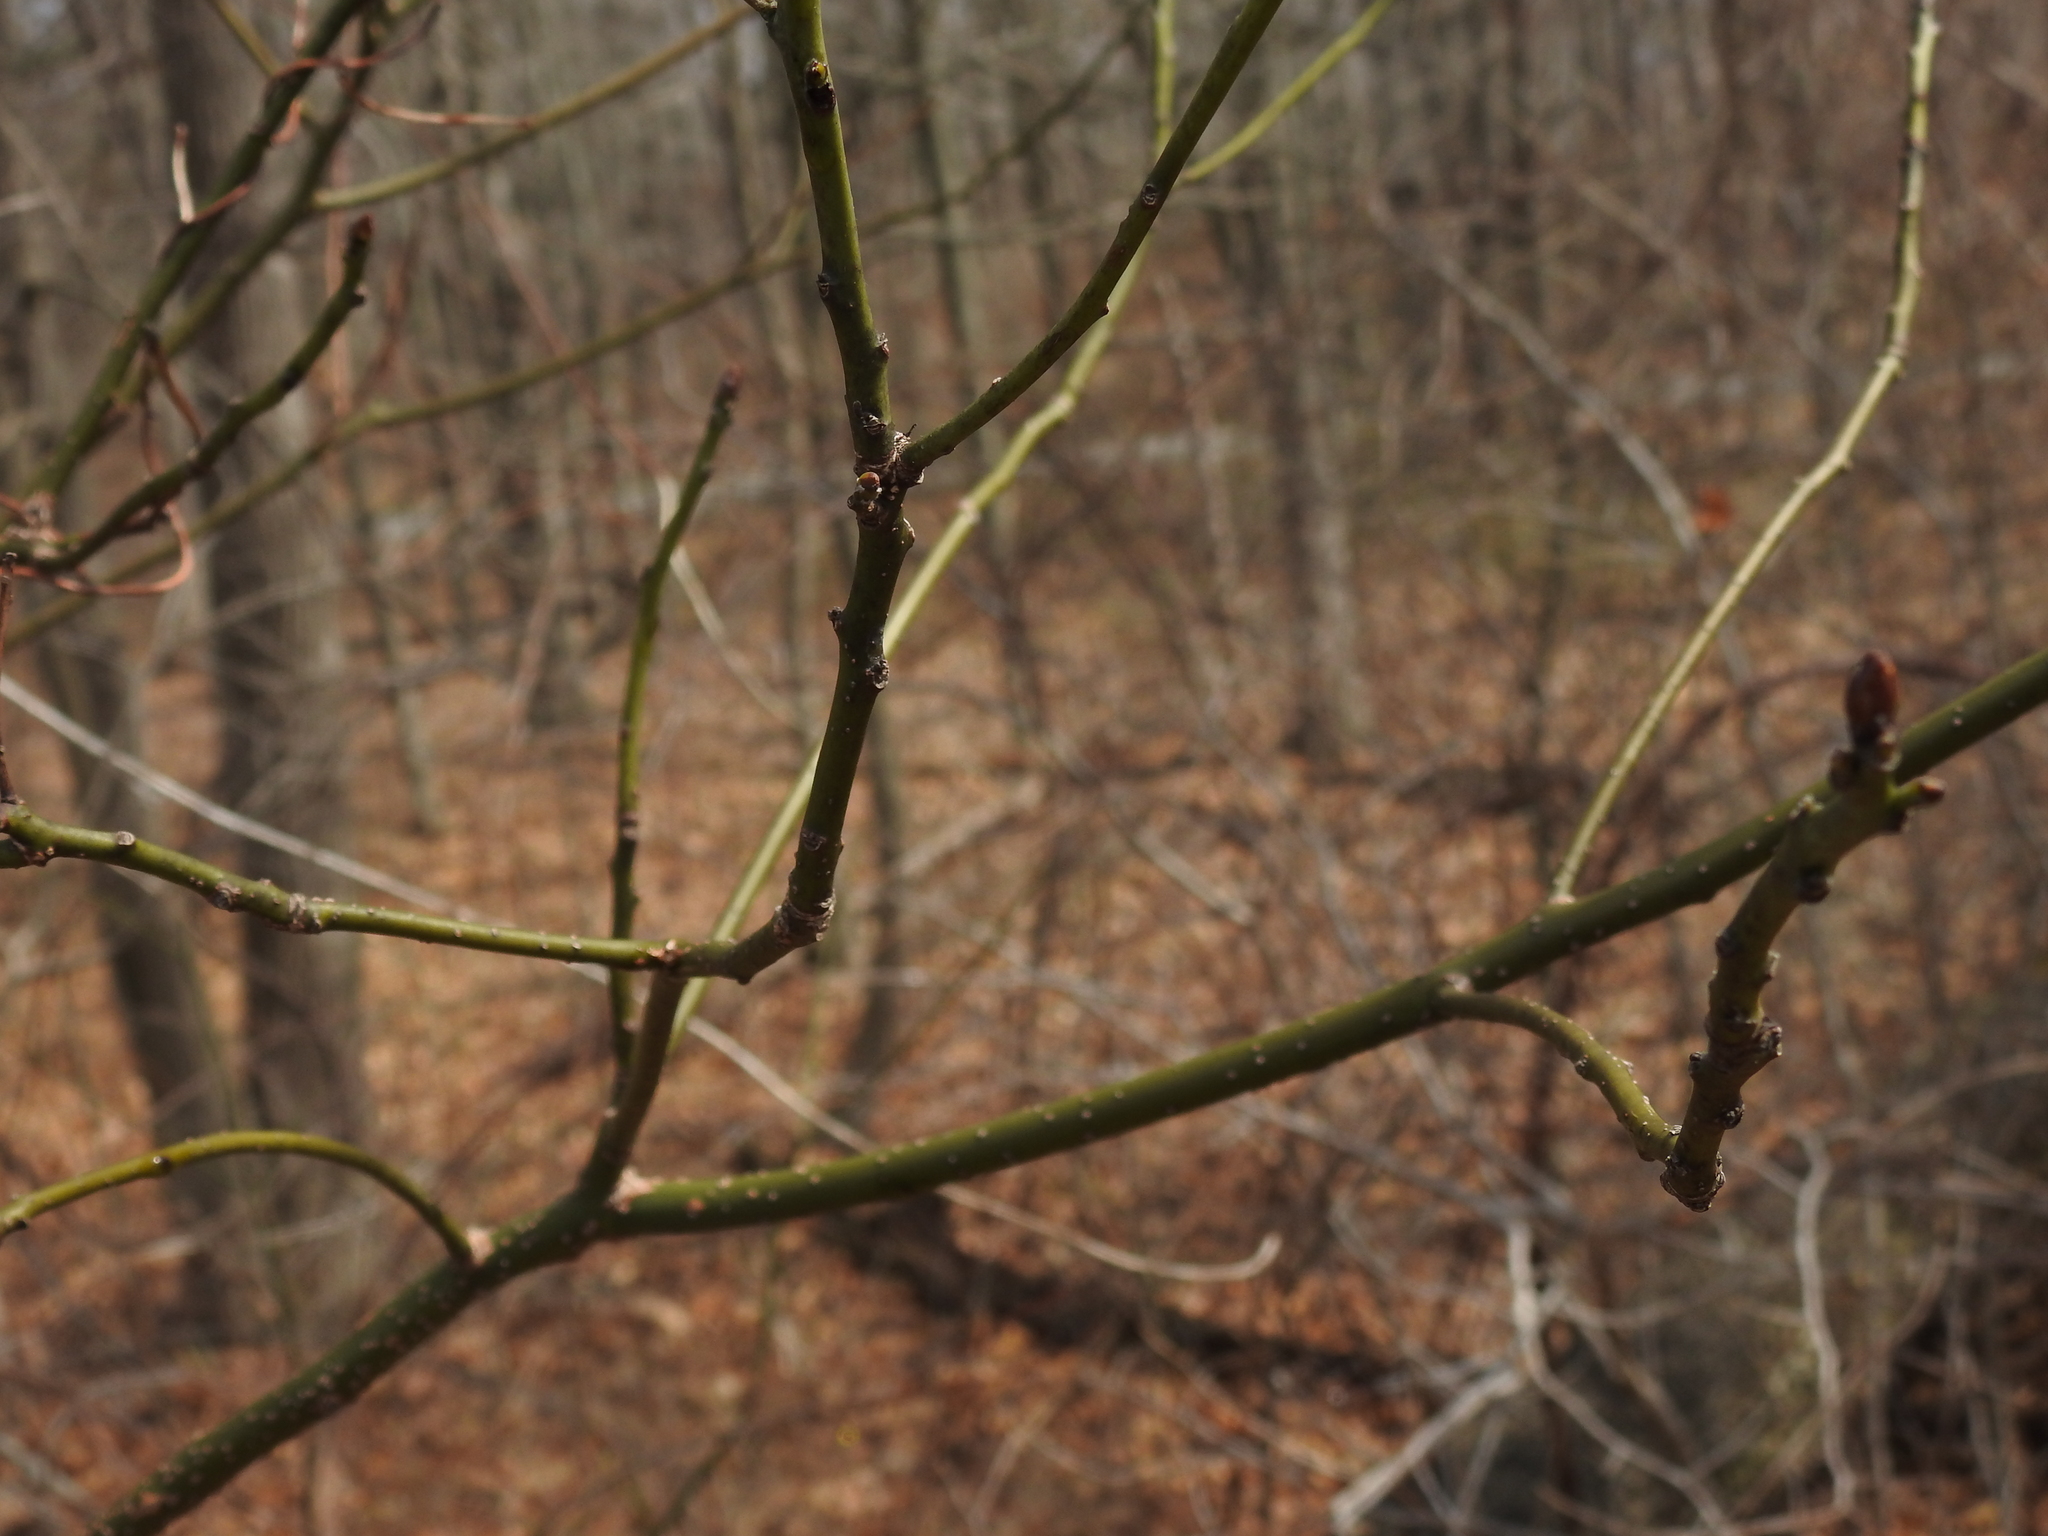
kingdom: Plantae
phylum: Tracheophyta
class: Magnoliopsida
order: Laurales
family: Lauraceae
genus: Sassafras
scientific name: Sassafras albidum
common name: Sassafras
